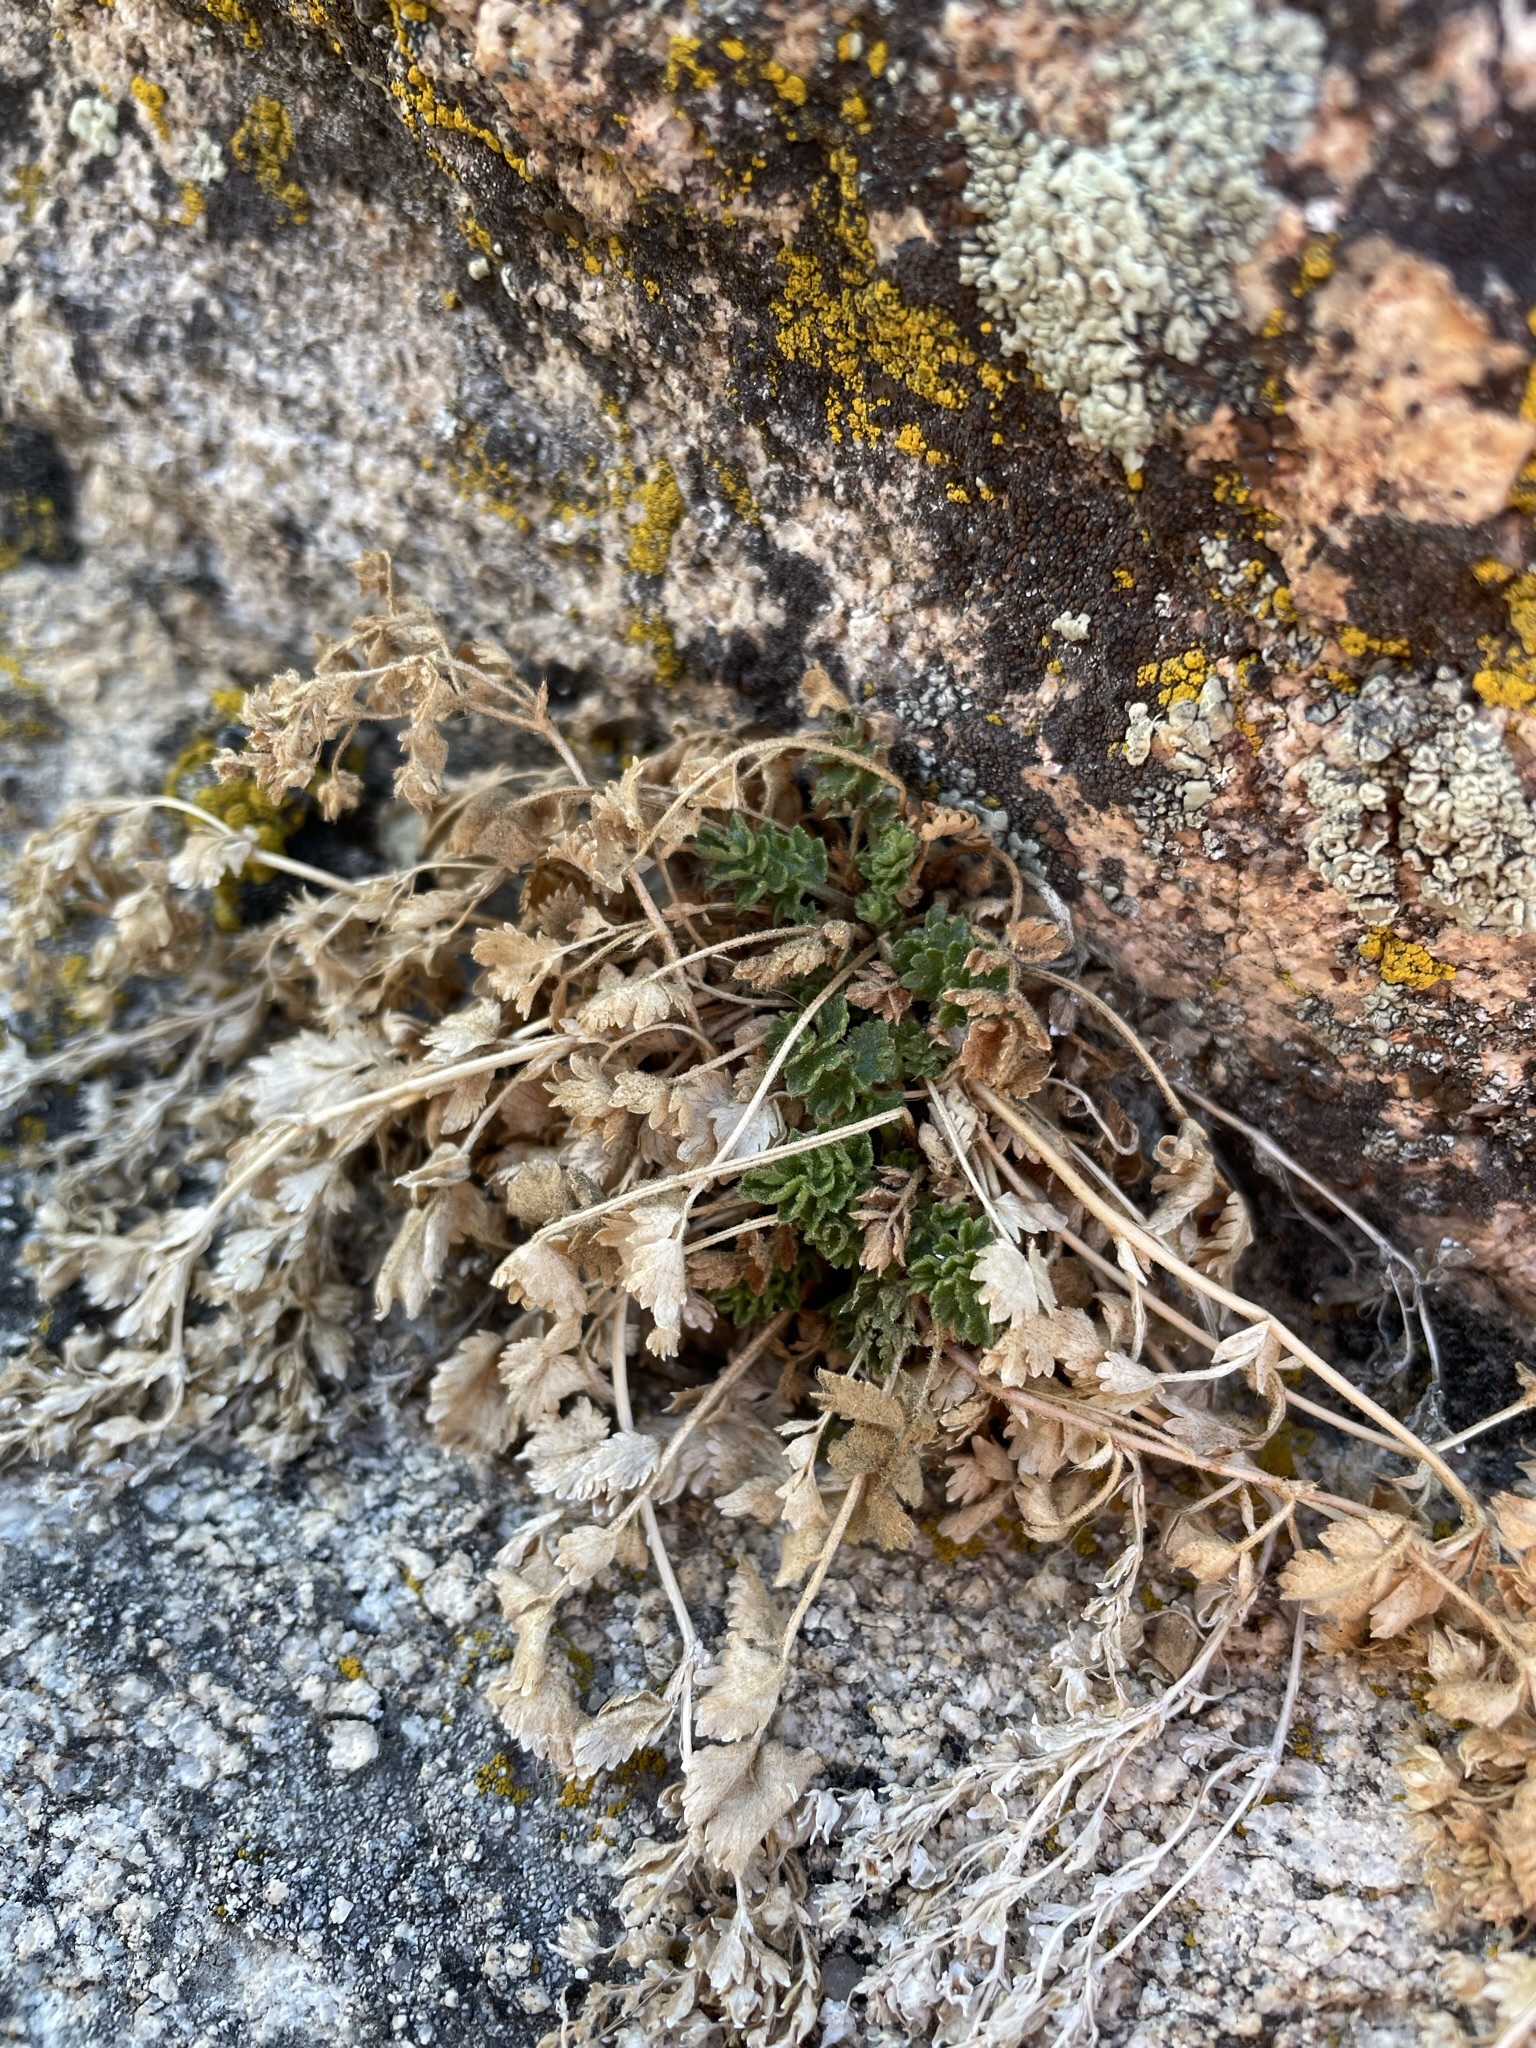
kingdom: Plantae
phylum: Tracheophyta
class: Magnoliopsida
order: Rosales
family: Rosaceae
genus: Potentilla
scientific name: Potentilla saxosa
